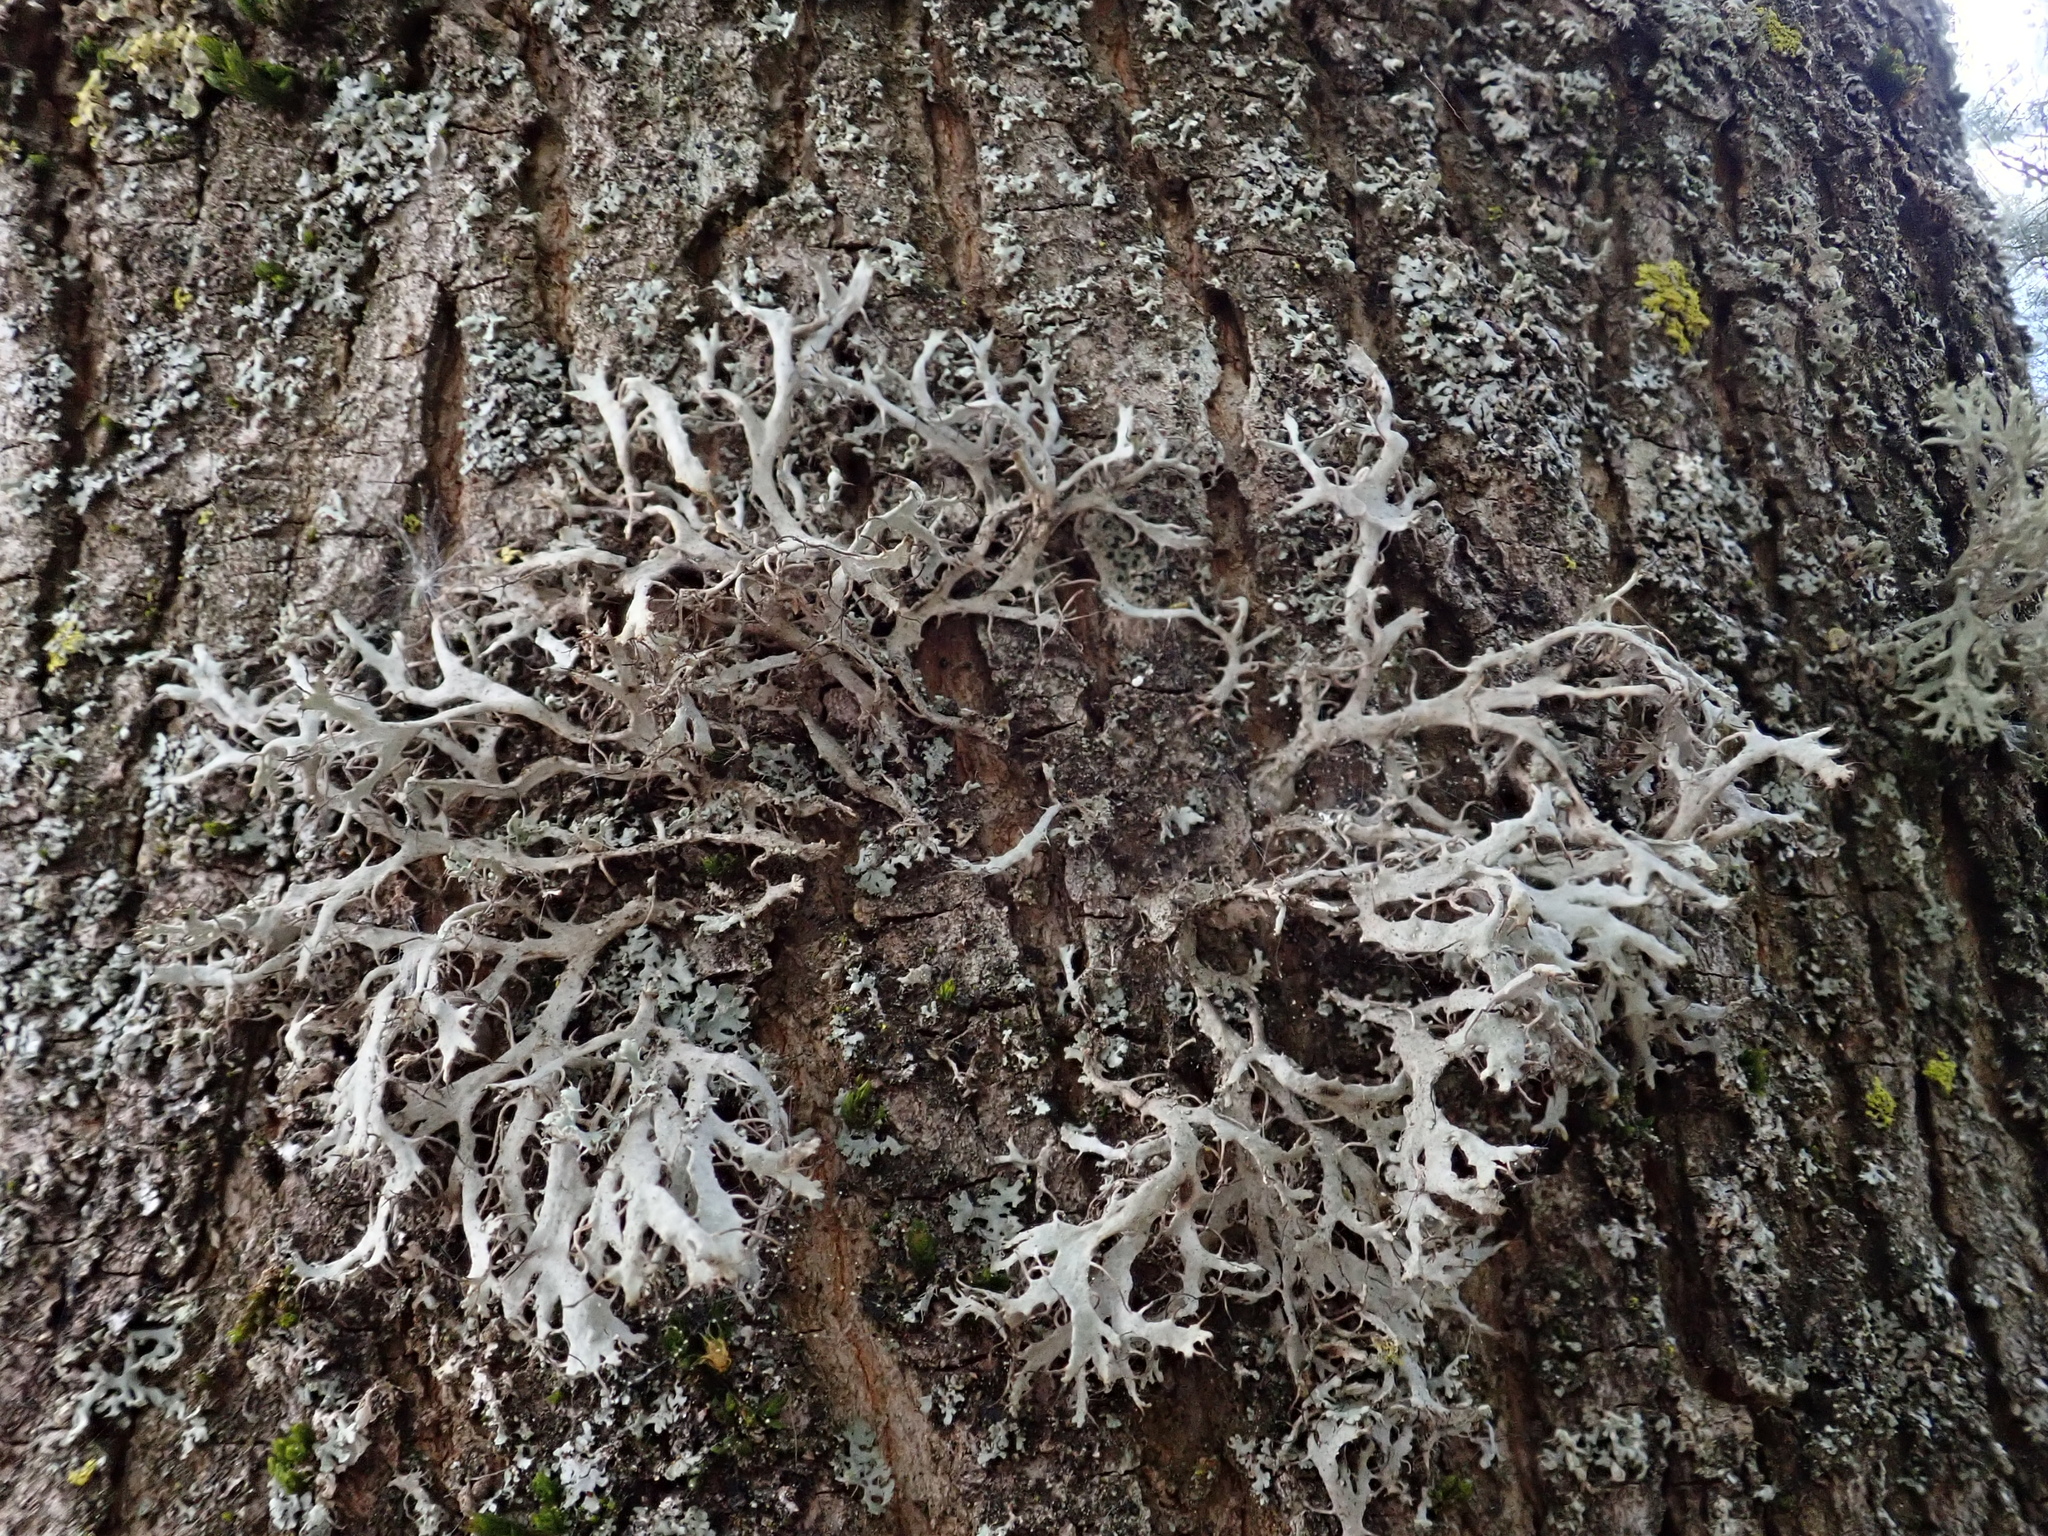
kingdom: Fungi
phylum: Ascomycota
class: Lecanoromycetes
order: Caliciales
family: Physciaceae
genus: Anaptychia
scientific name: Anaptychia ciliaris
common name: Great ciliated lichen
